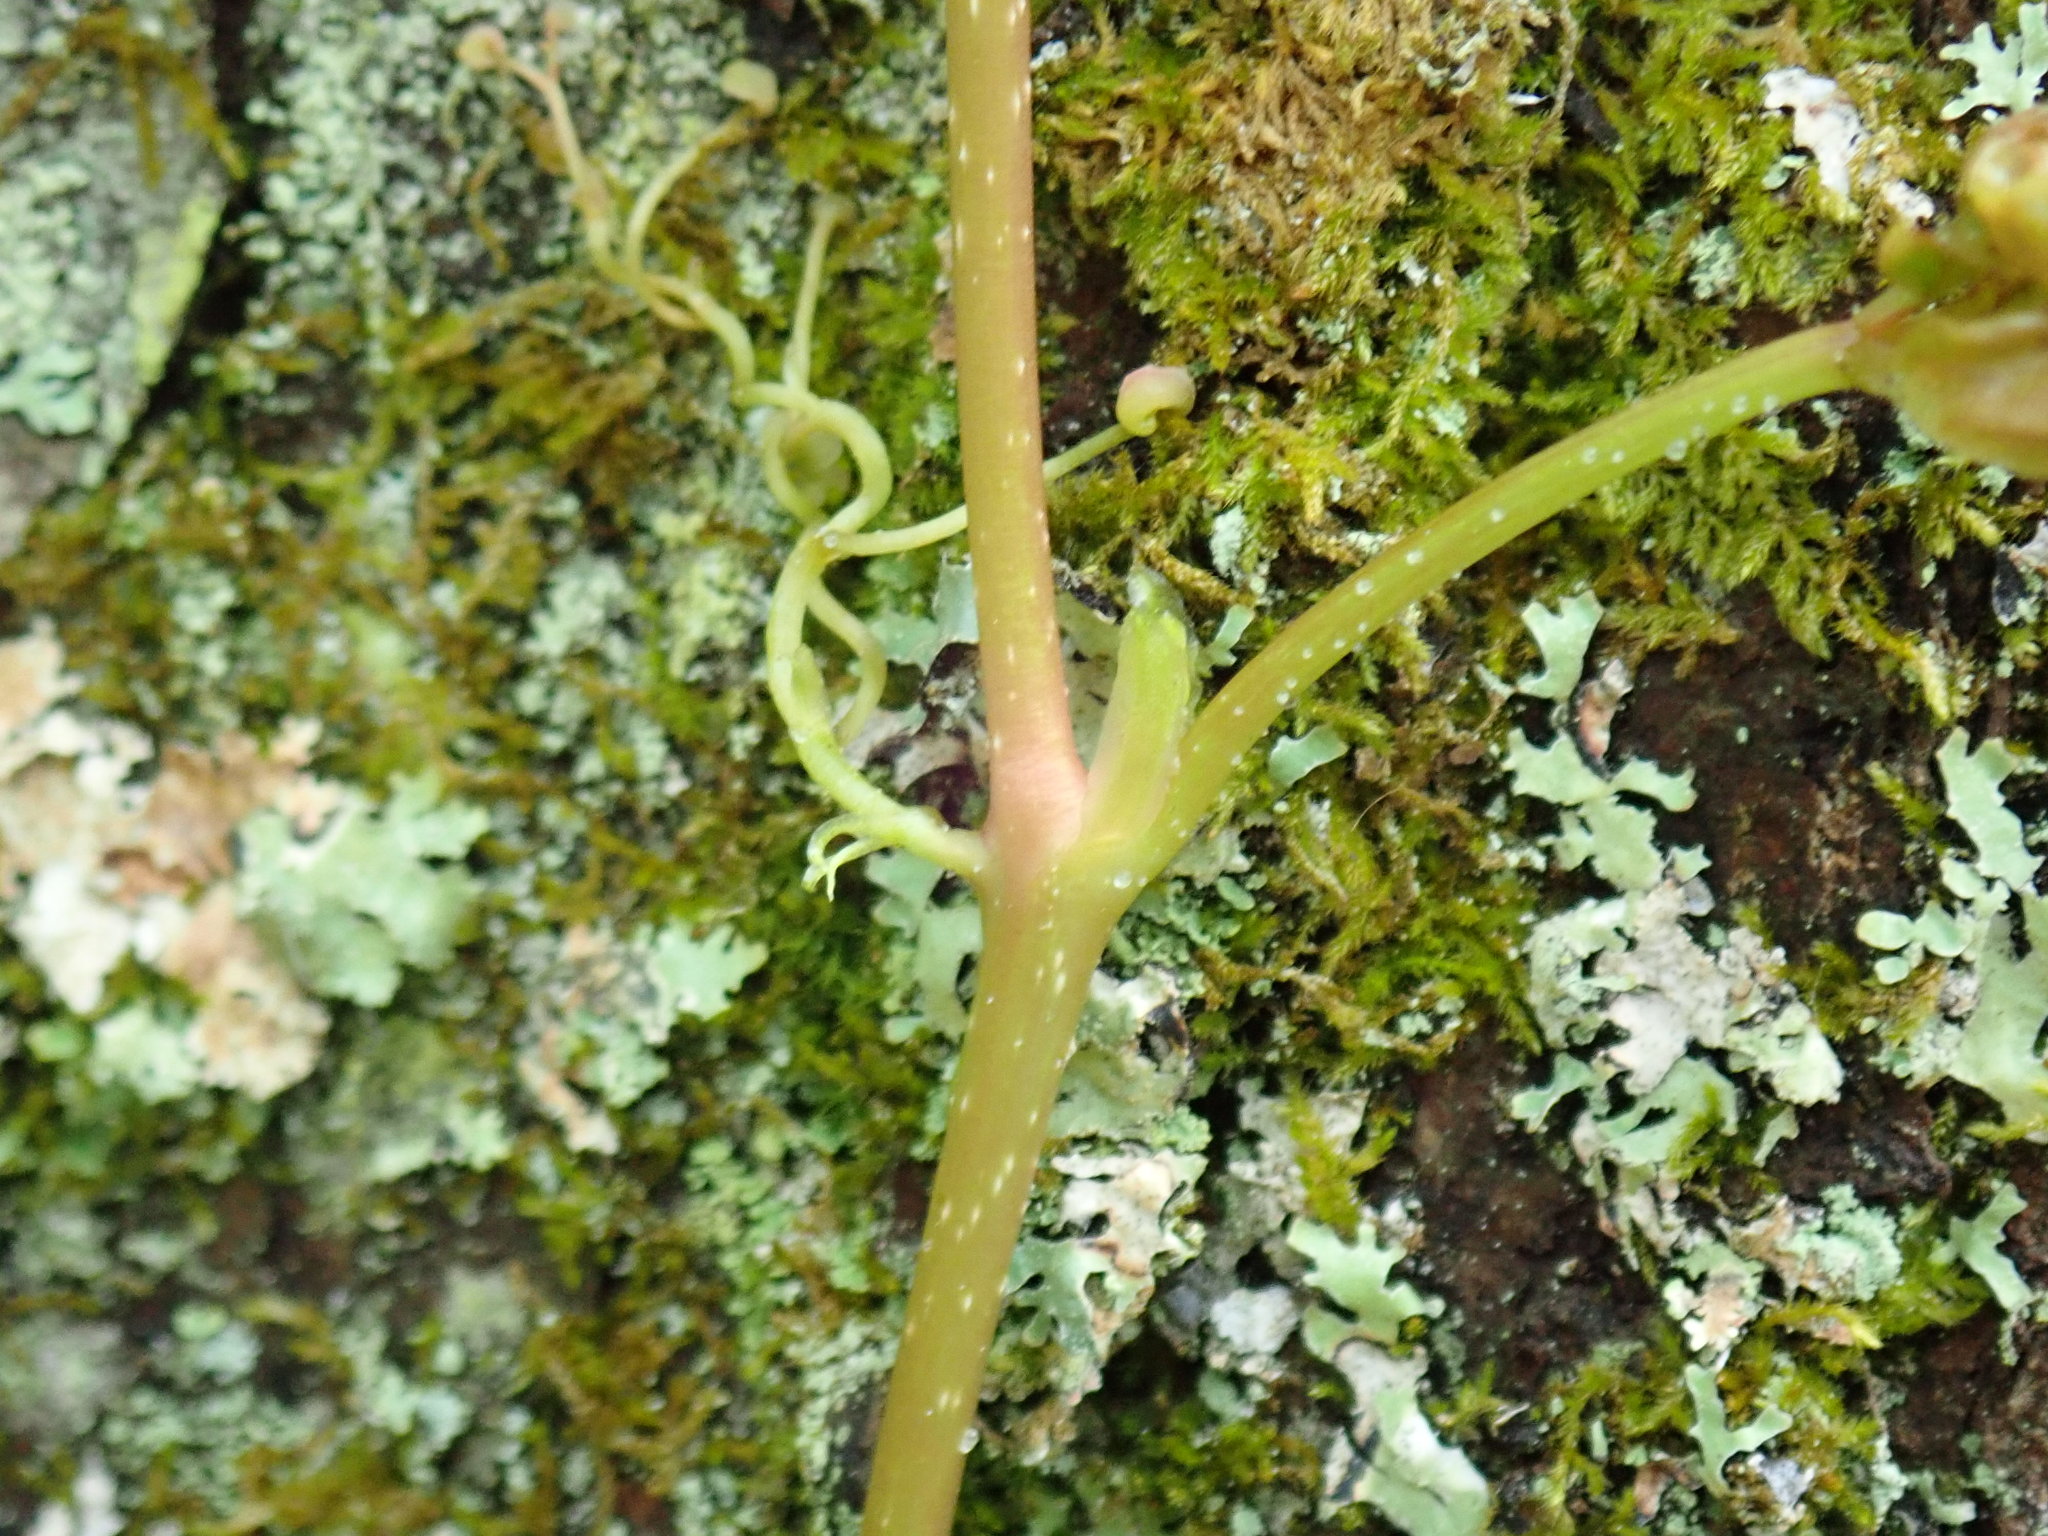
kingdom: Plantae
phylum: Tracheophyta
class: Magnoliopsida
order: Vitales
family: Vitaceae
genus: Parthenocissus
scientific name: Parthenocissus quinquefolia
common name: Virginia-creeper
